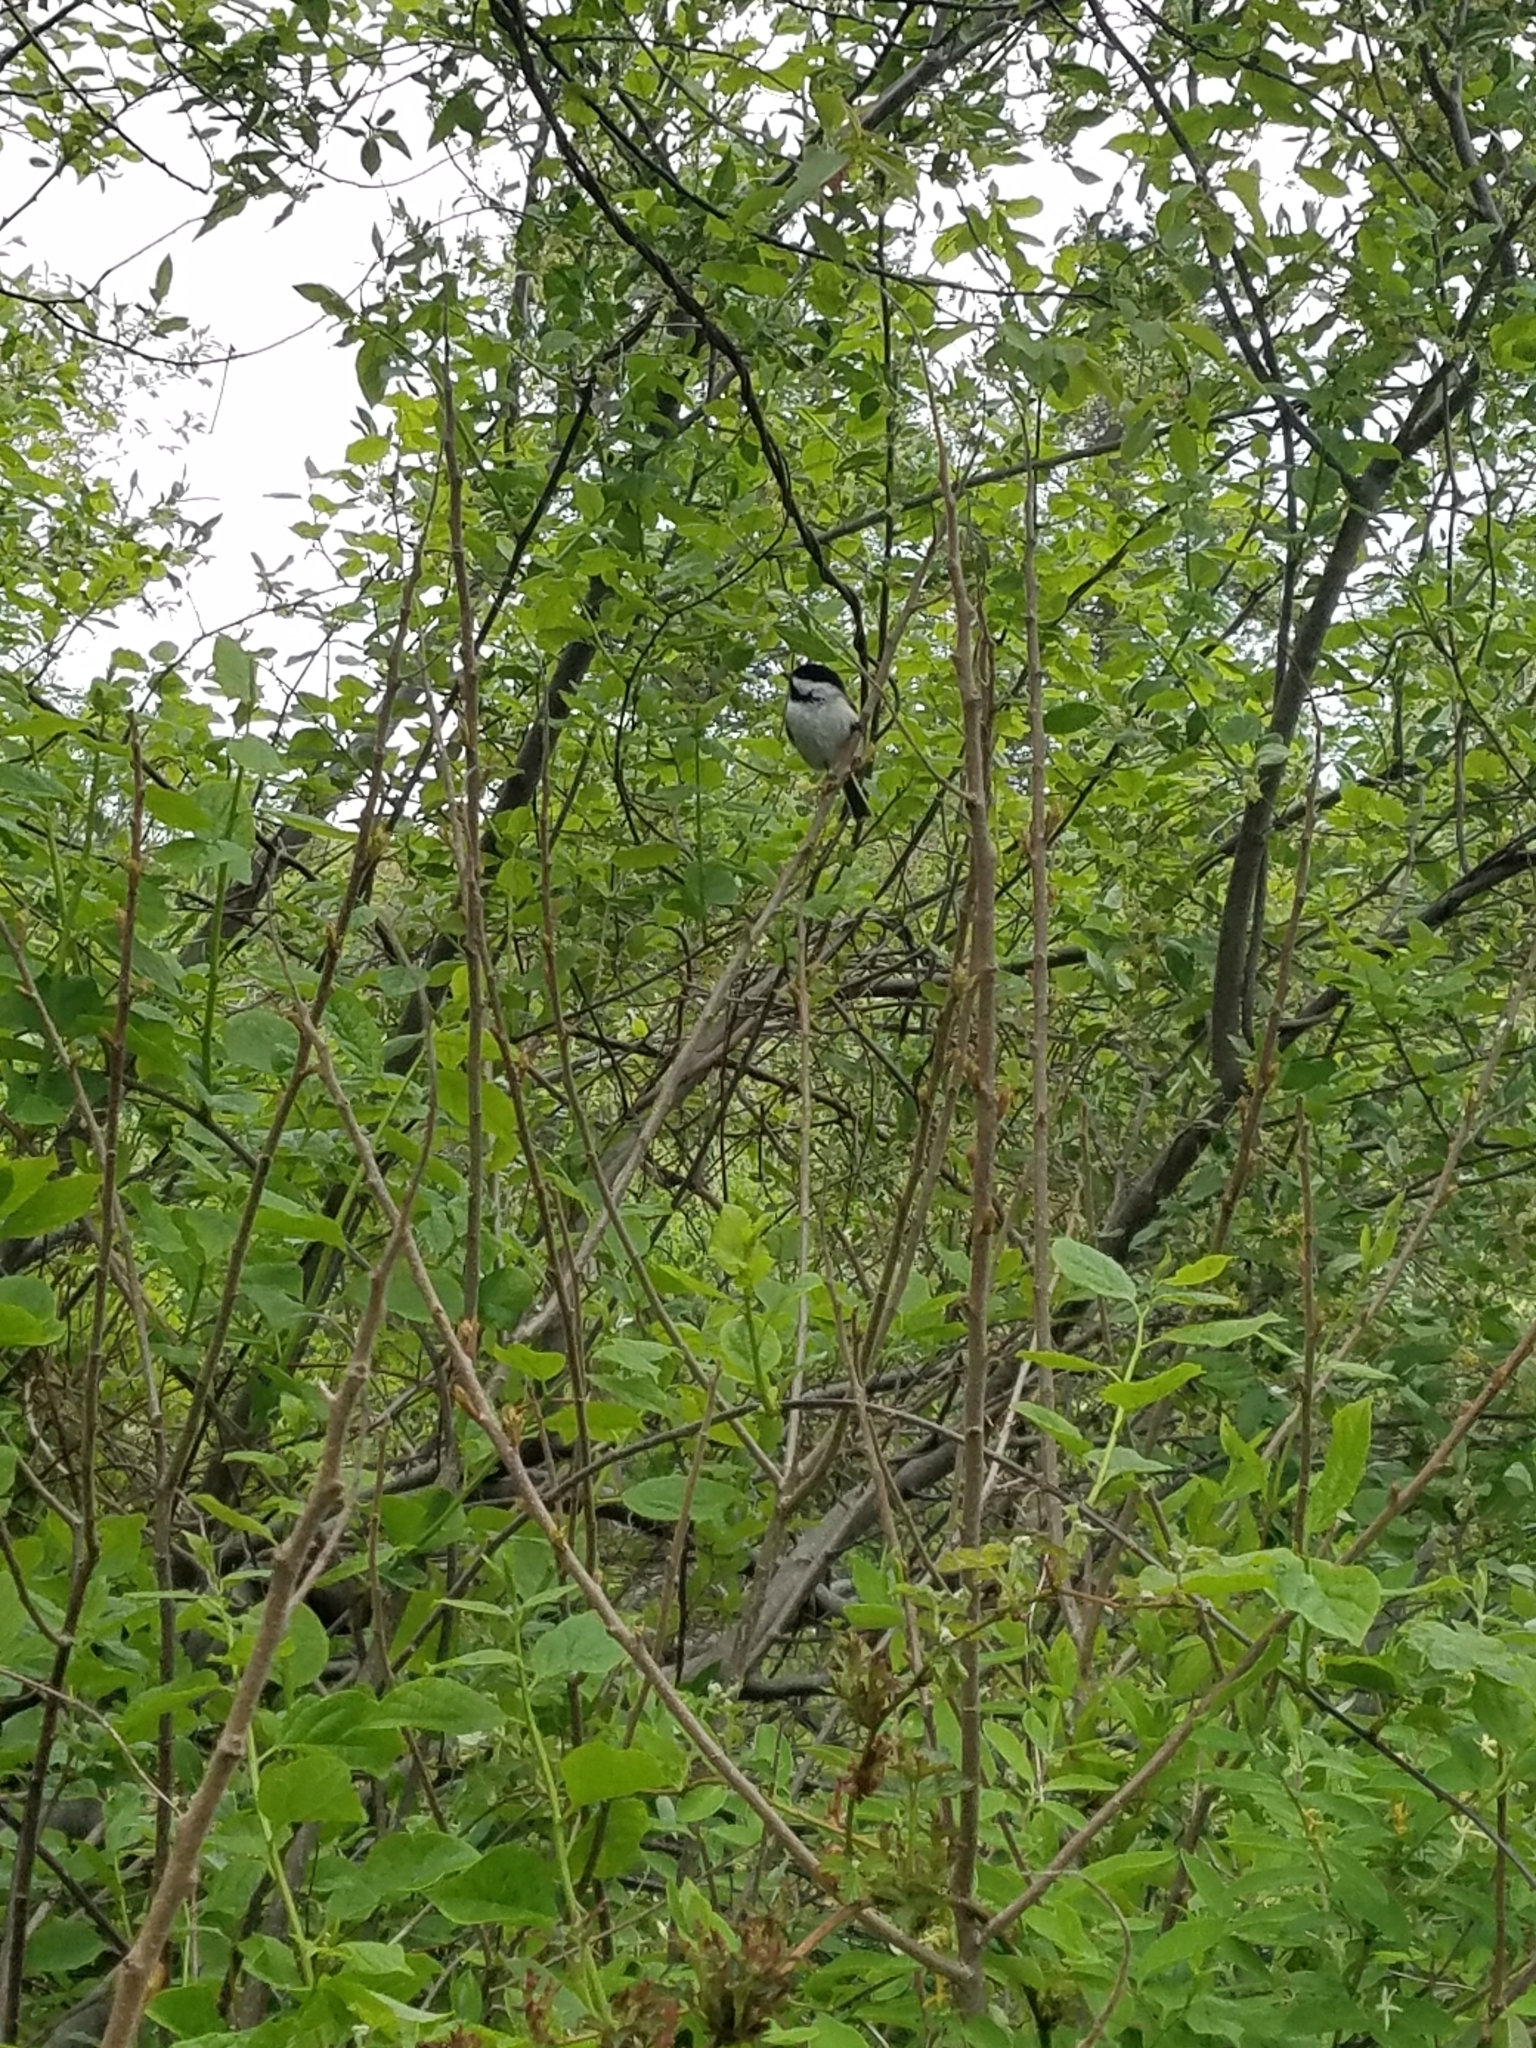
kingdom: Animalia
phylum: Chordata
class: Aves
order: Passeriformes
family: Paridae
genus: Poecile
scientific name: Poecile atricapillus
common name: Black-capped chickadee
